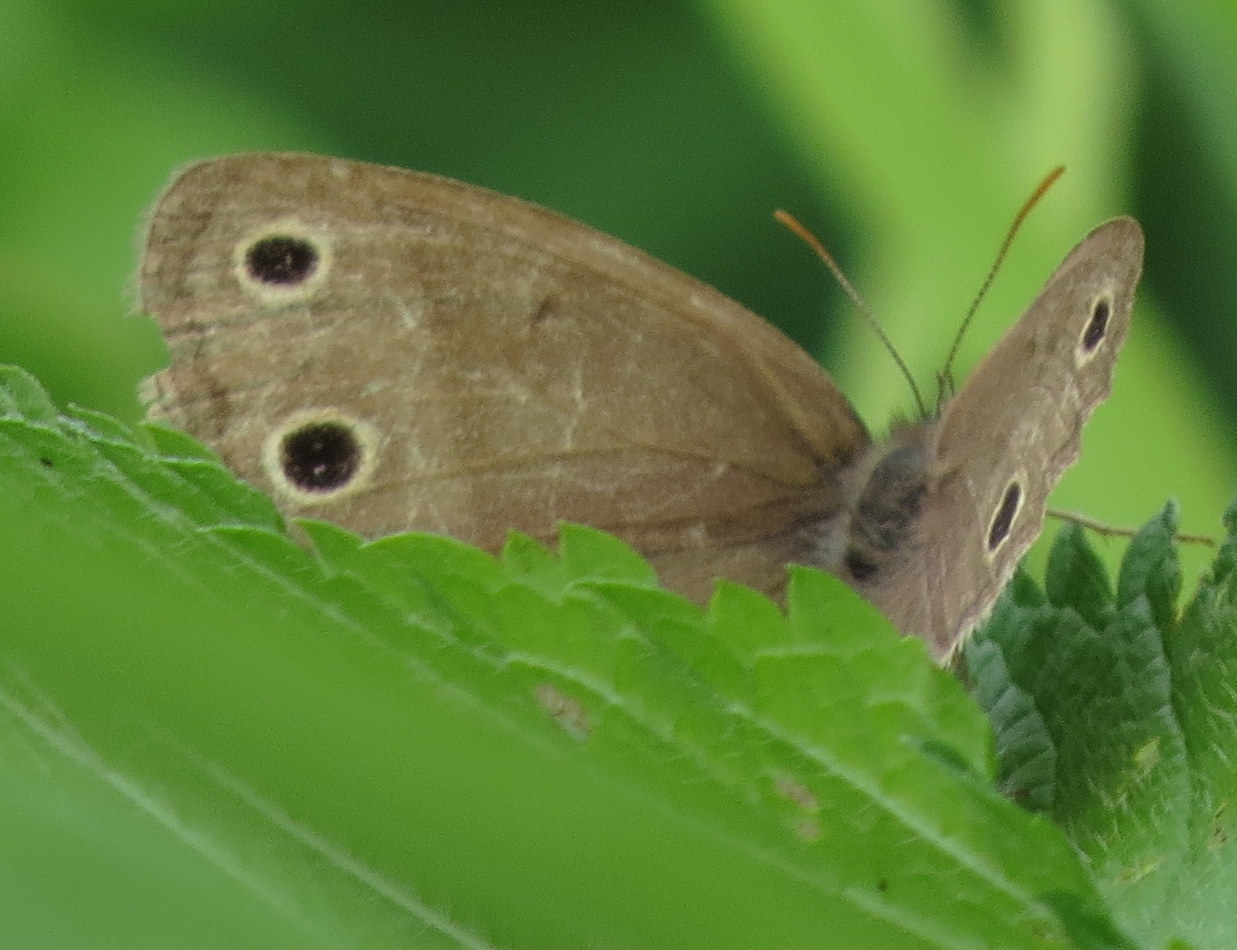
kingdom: Animalia
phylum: Arthropoda
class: Insecta
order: Lepidoptera
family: Nymphalidae
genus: Euptychia
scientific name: Euptychia cymela
